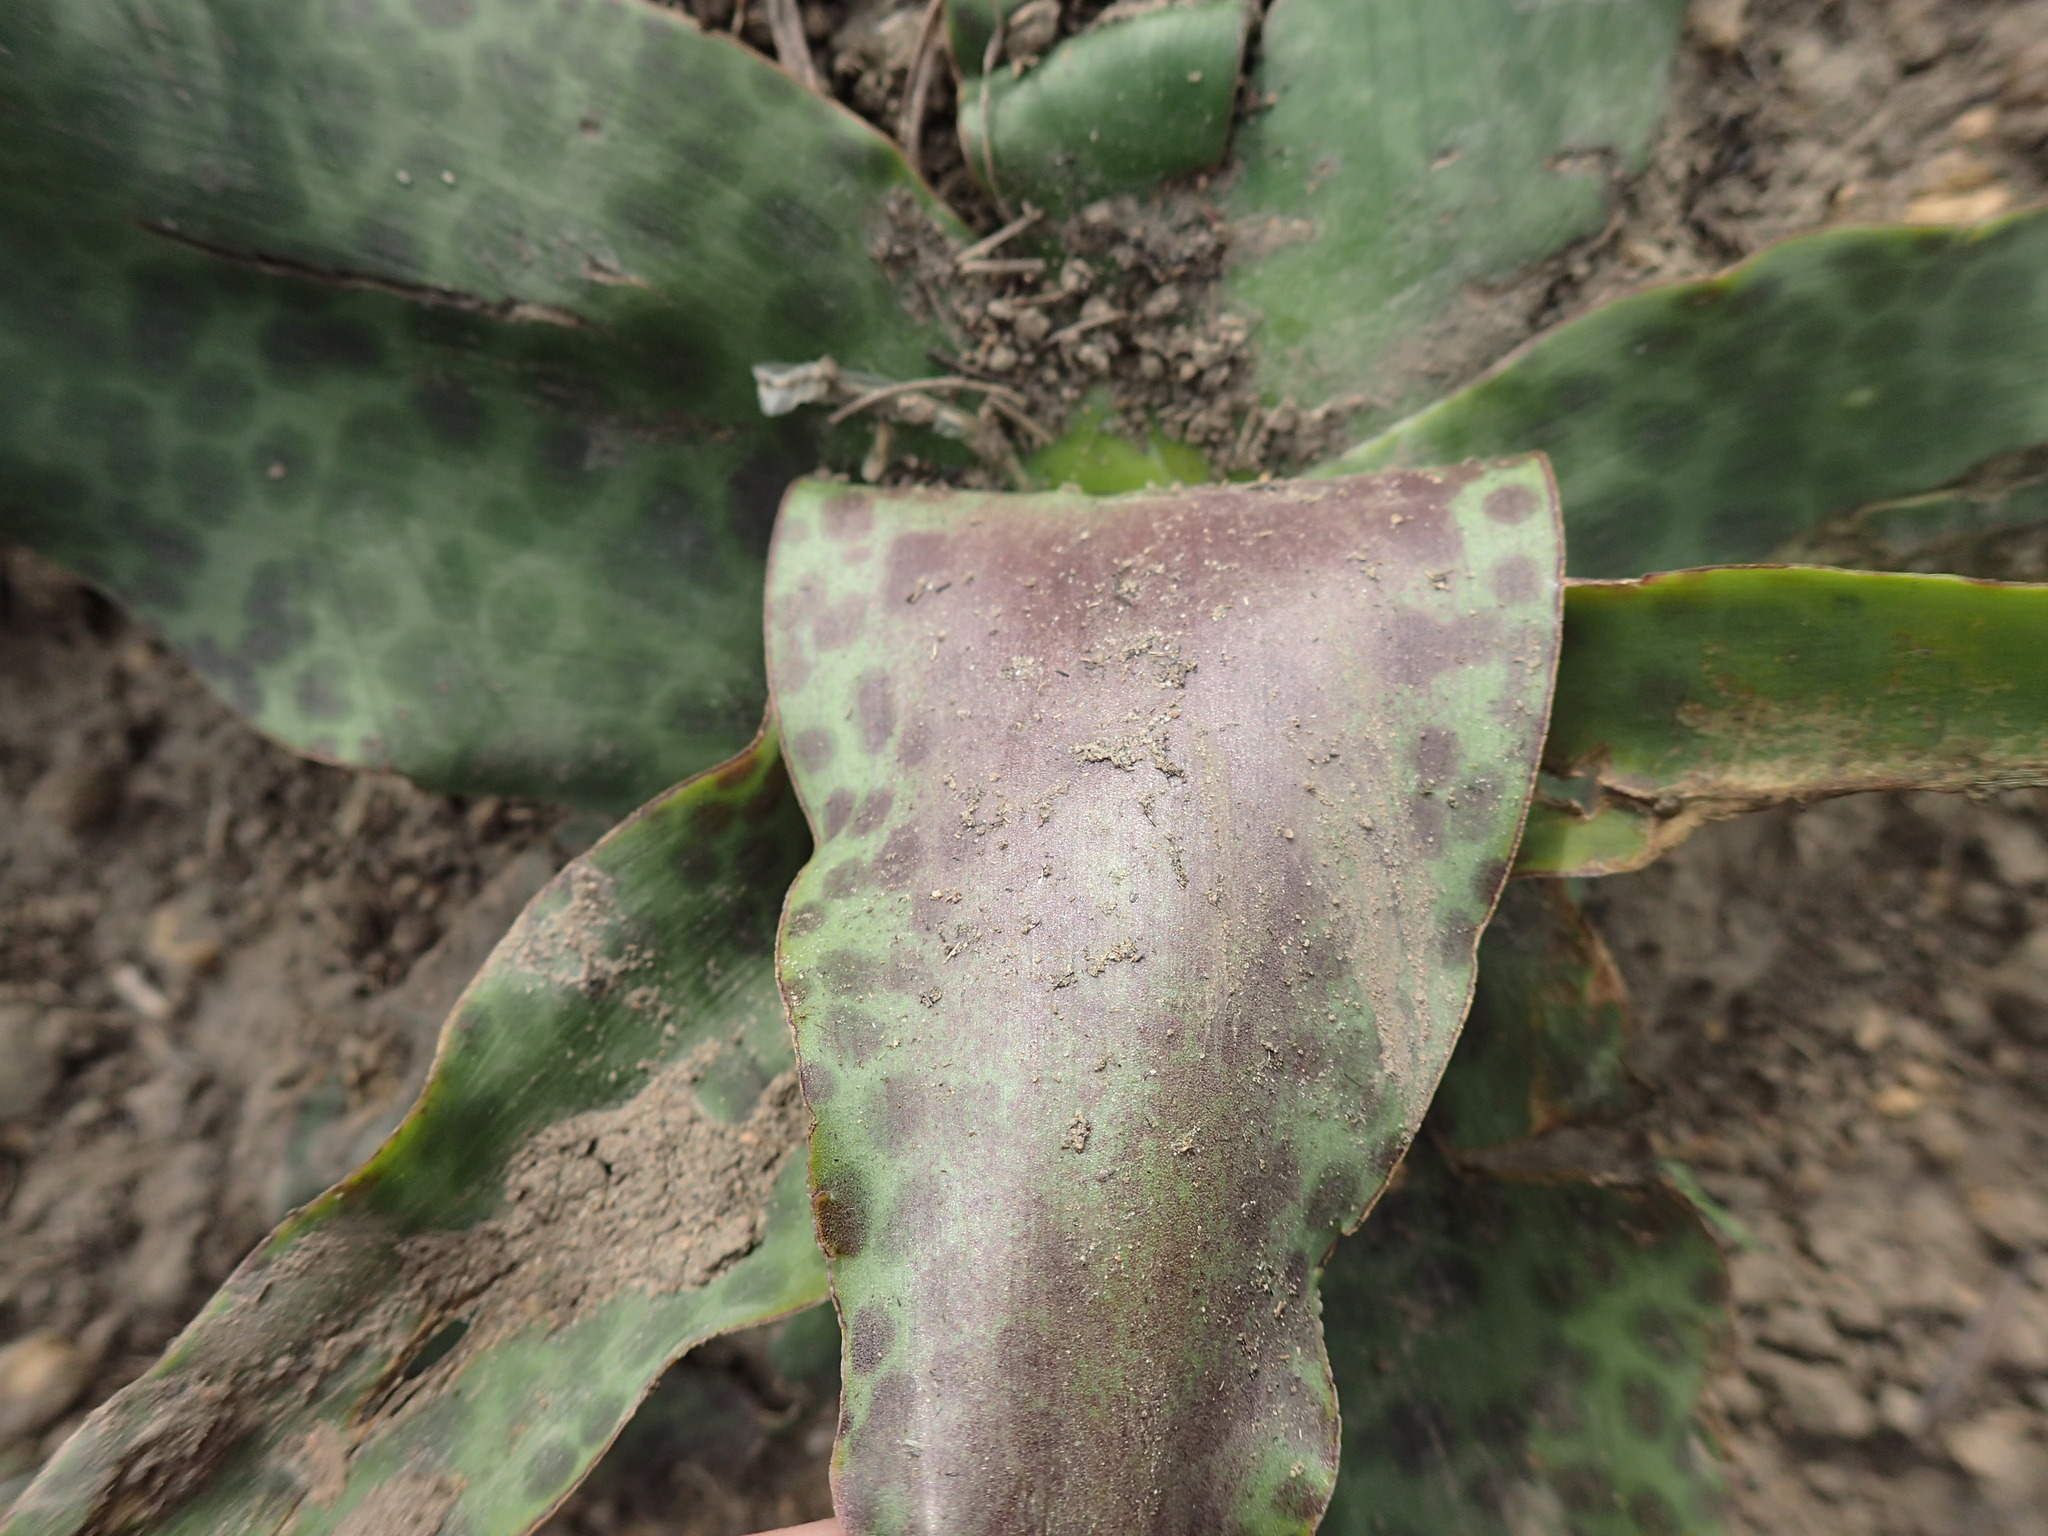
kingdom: Plantae
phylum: Tracheophyta
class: Liliopsida
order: Asparagales
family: Asparagaceae
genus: Ledebouria
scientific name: Ledebouria ovatifolia
